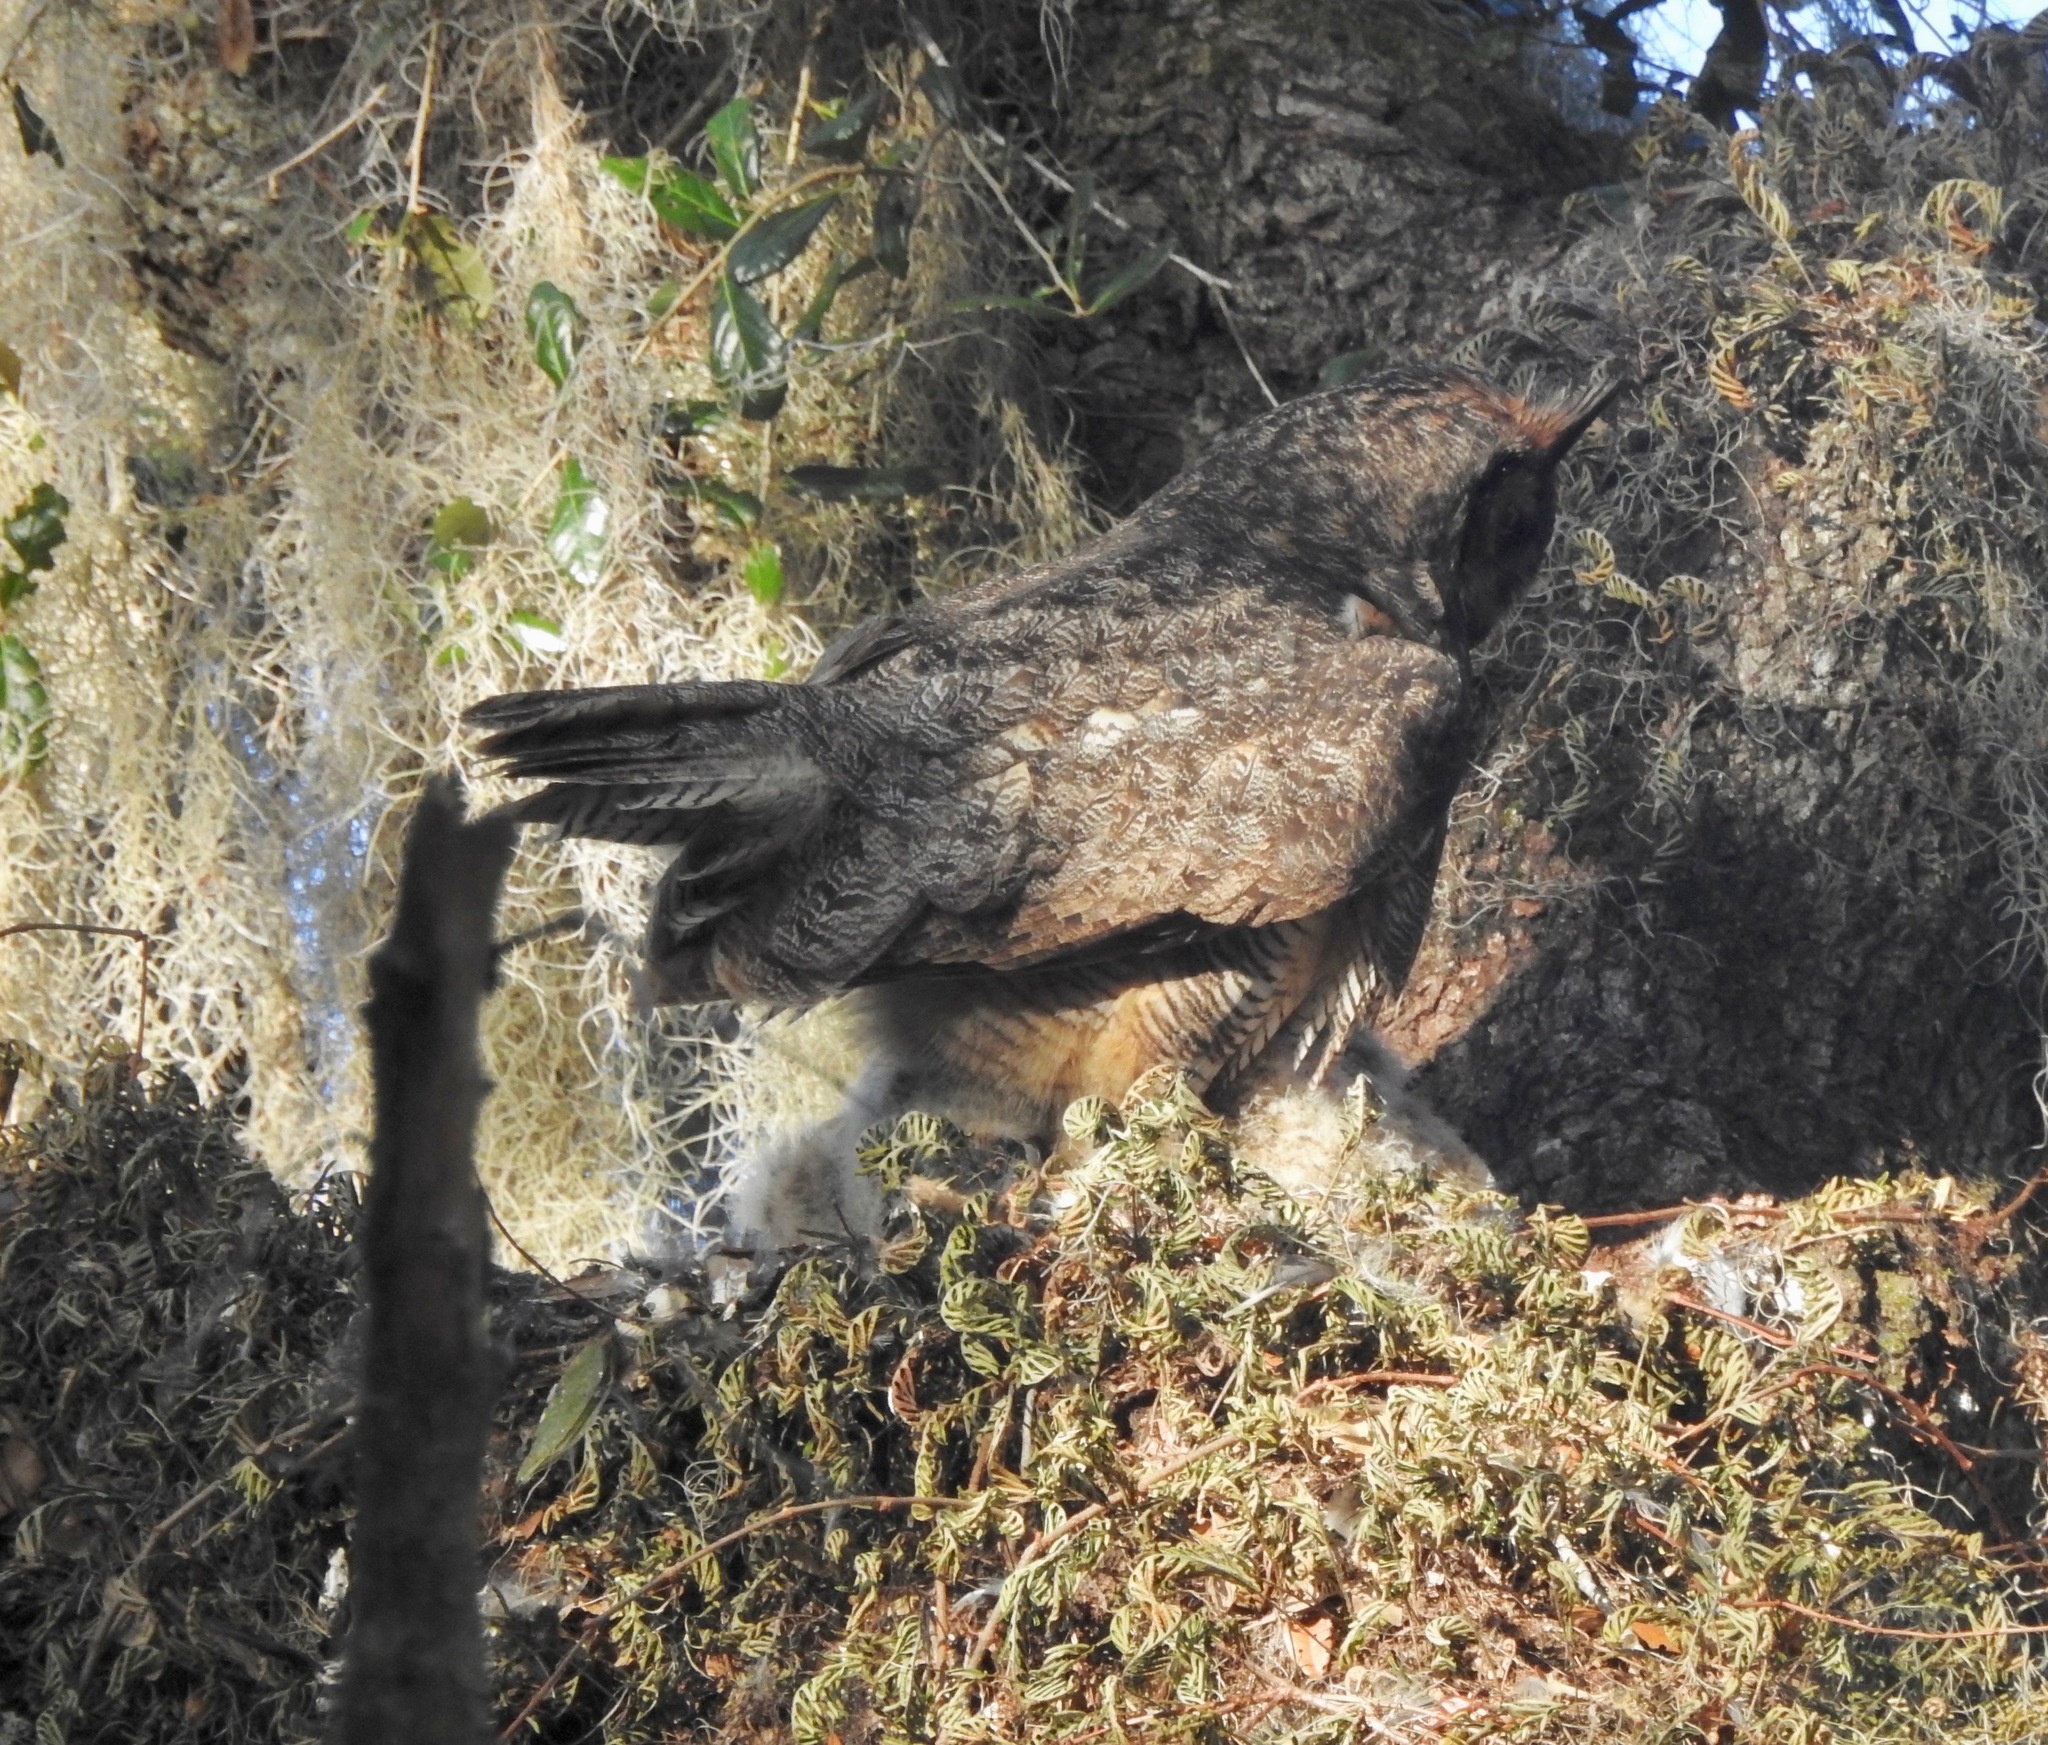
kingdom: Animalia
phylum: Chordata
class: Aves
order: Strigiformes
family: Strigidae
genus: Bubo
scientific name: Bubo virginianus
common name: Great horned owl
